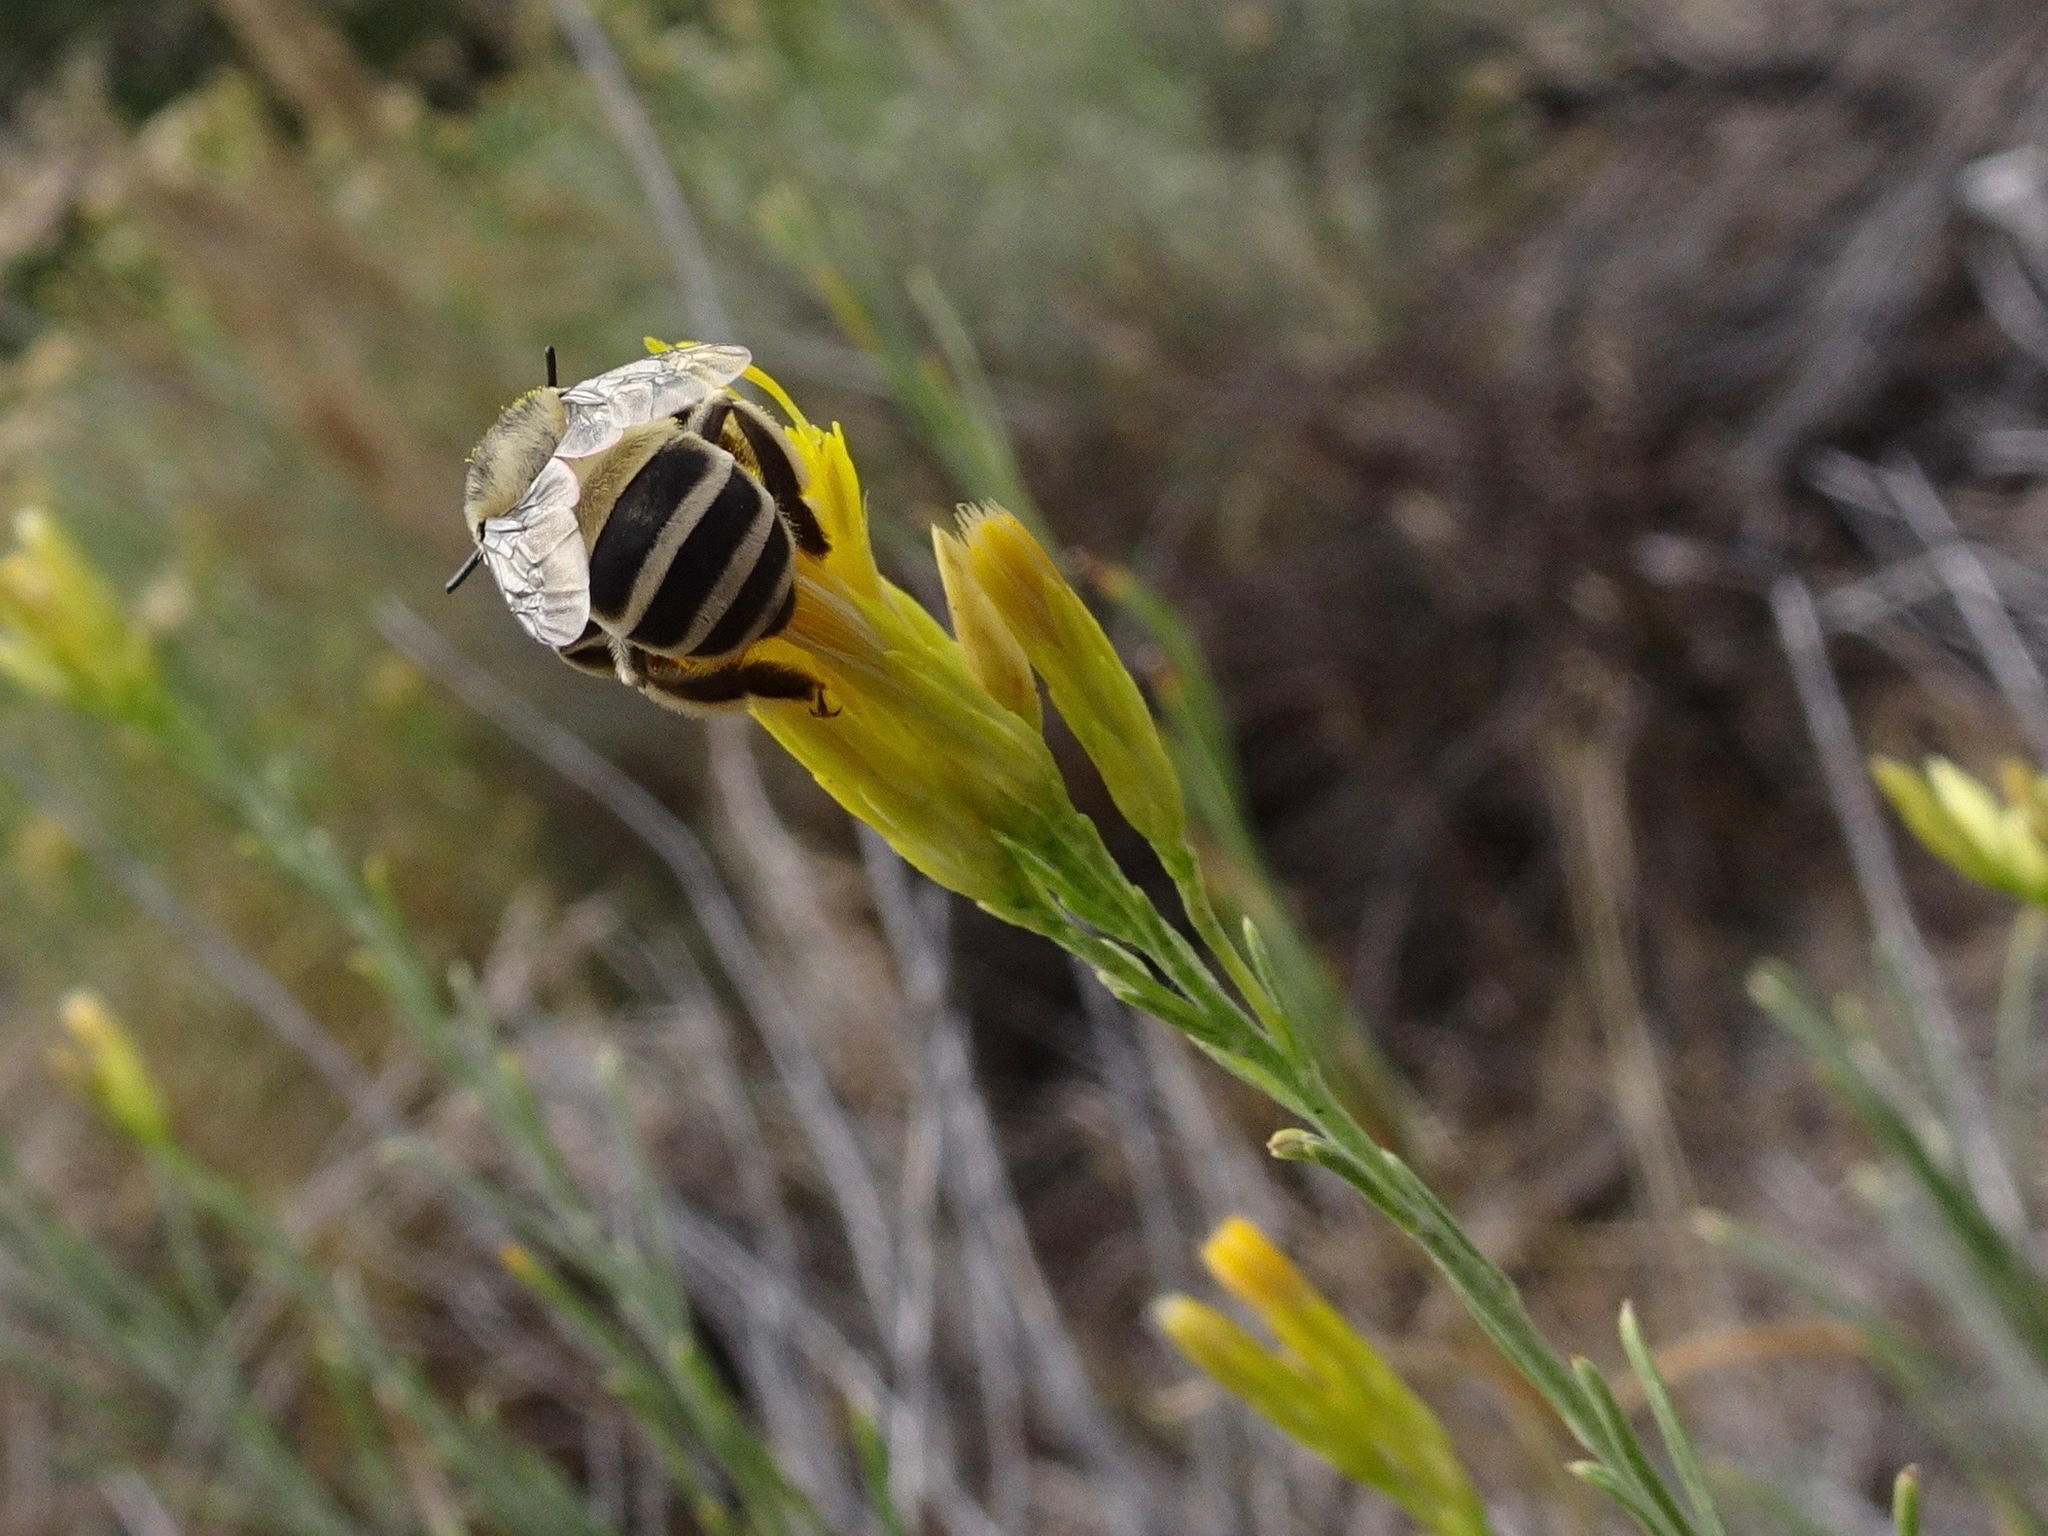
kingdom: Animalia
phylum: Arthropoda
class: Insecta
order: Hymenoptera
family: Apidae
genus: Anthophora
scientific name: Anthophora urbana
